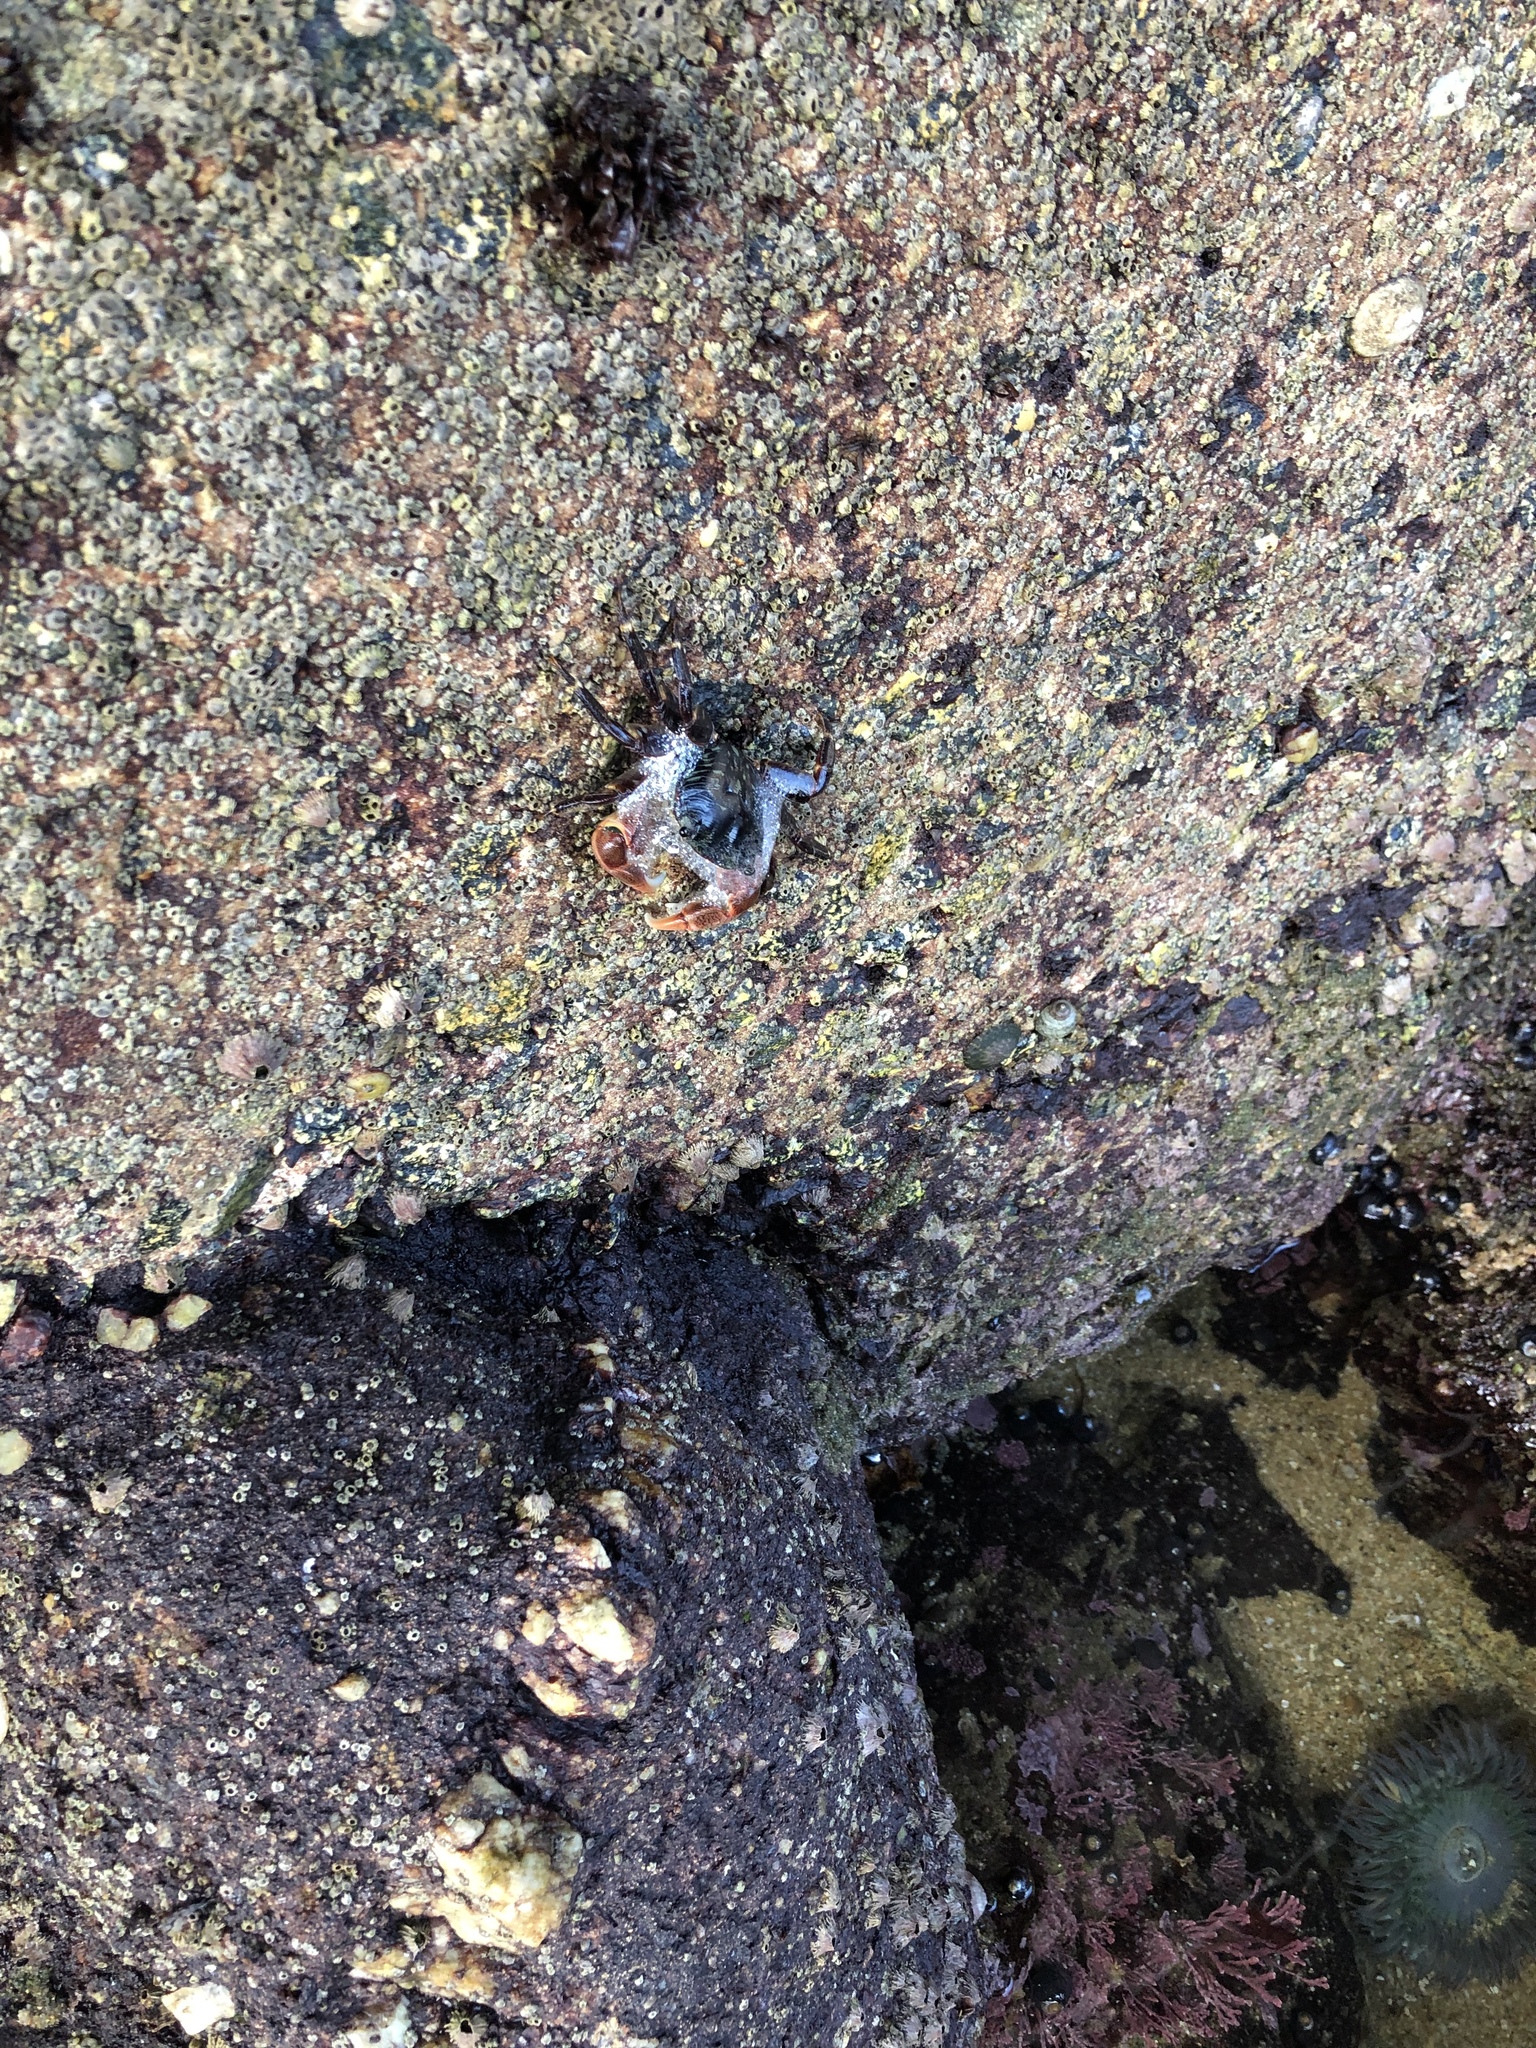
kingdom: Animalia
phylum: Arthropoda
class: Malacostraca
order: Decapoda
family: Grapsidae
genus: Pachygrapsus
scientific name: Pachygrapsus crassipes
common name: Striped shore crab
